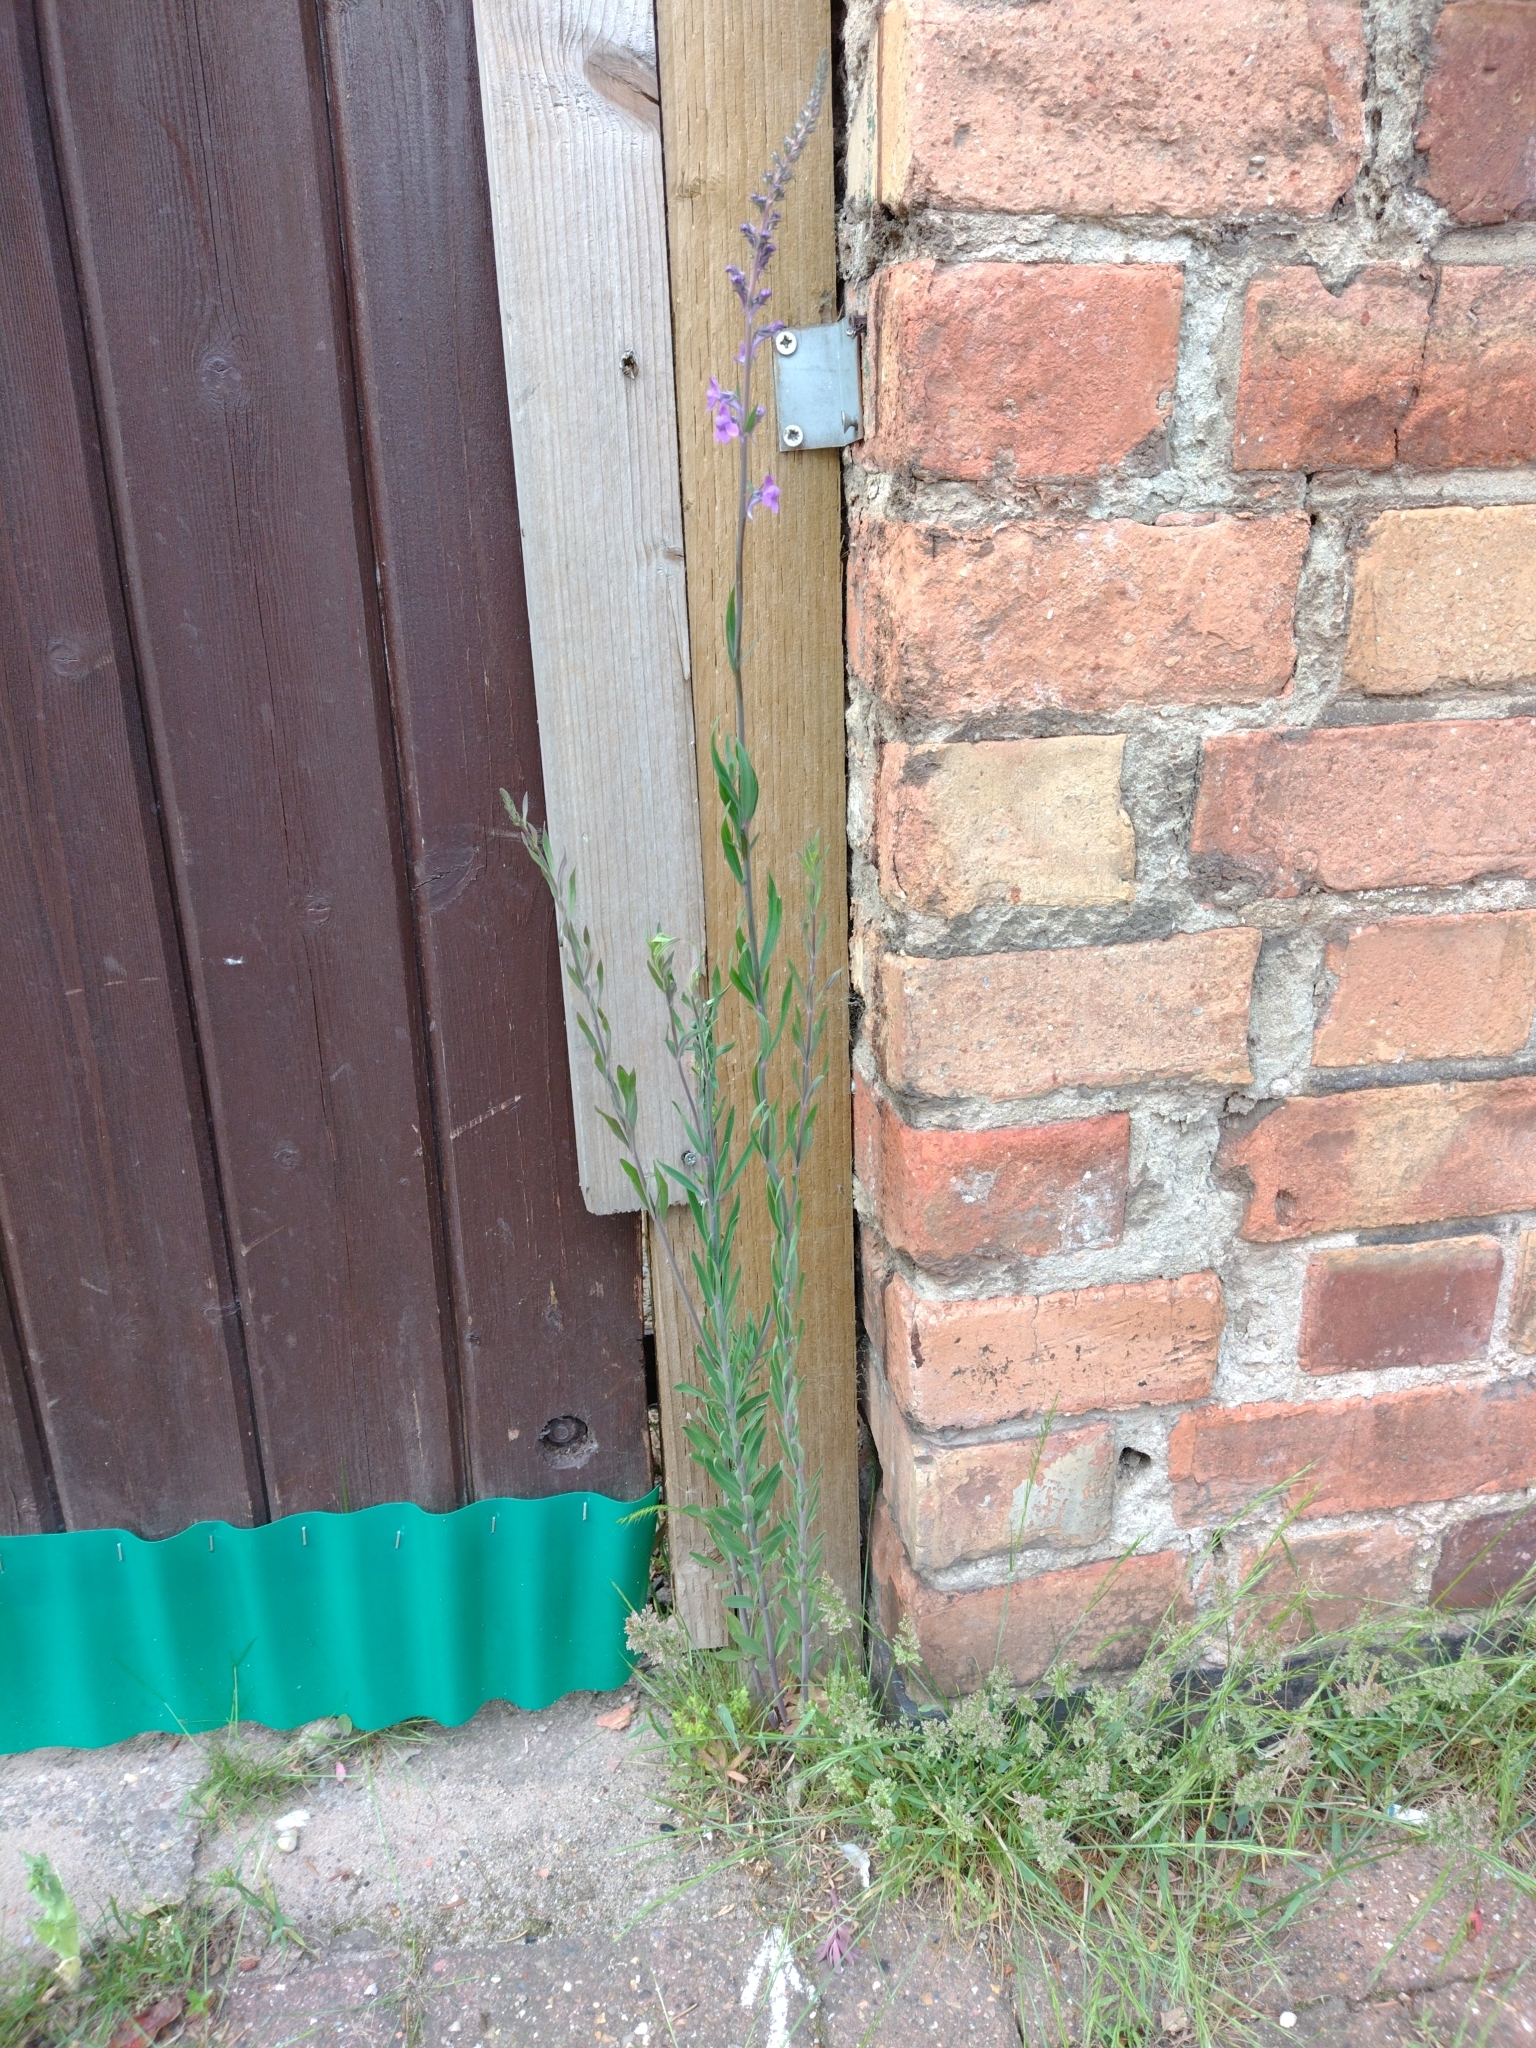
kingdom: Plantae
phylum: Tracheophyta
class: Magnoliopsida
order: Lamiales
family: Plantaginaceae
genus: Linaria
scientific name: Linaria purpurea
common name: Purple toadflax
